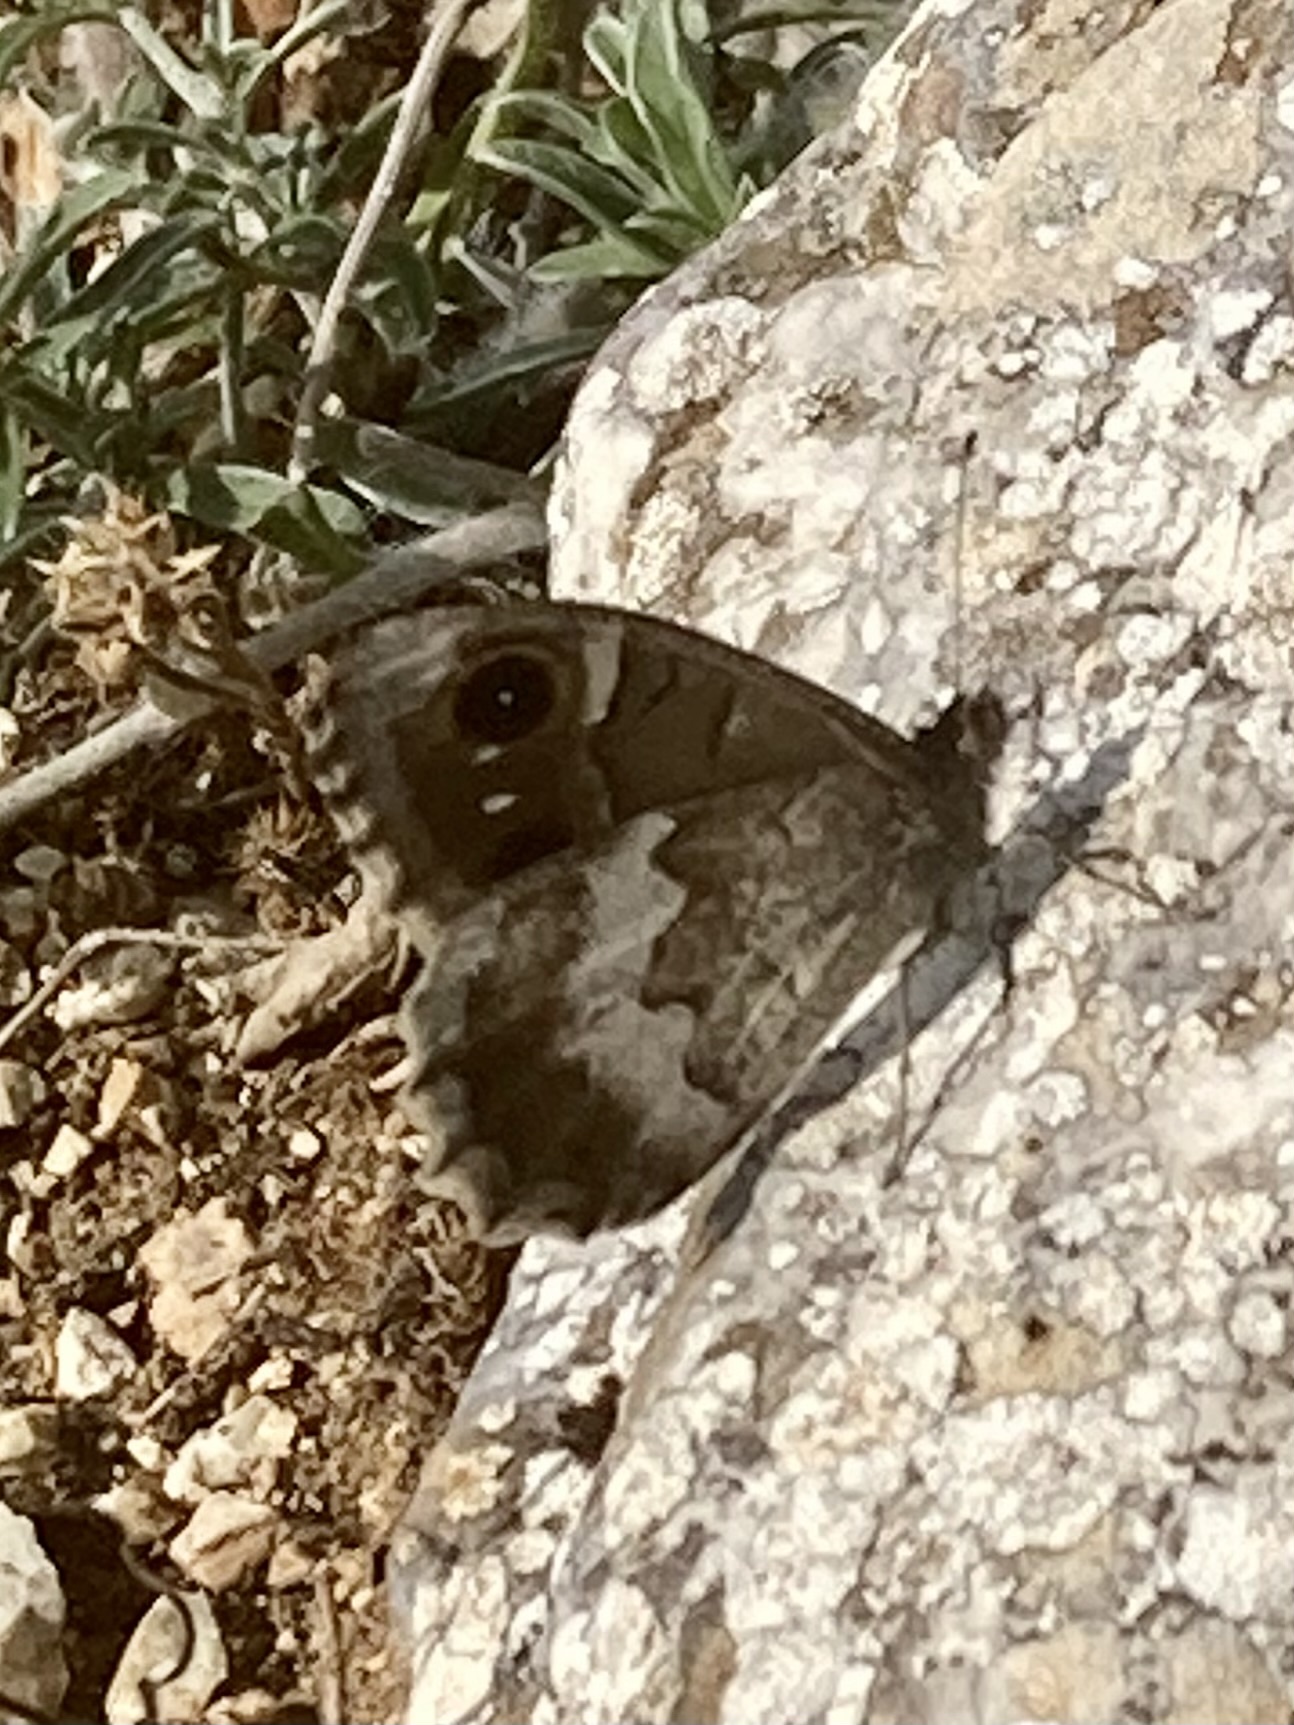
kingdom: Animalia
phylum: Arthropoda
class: Insecta
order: Lepidoptera
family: Nymphalidae
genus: Hipparchia
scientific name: Hipparchia statilinus
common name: Tree grayling
